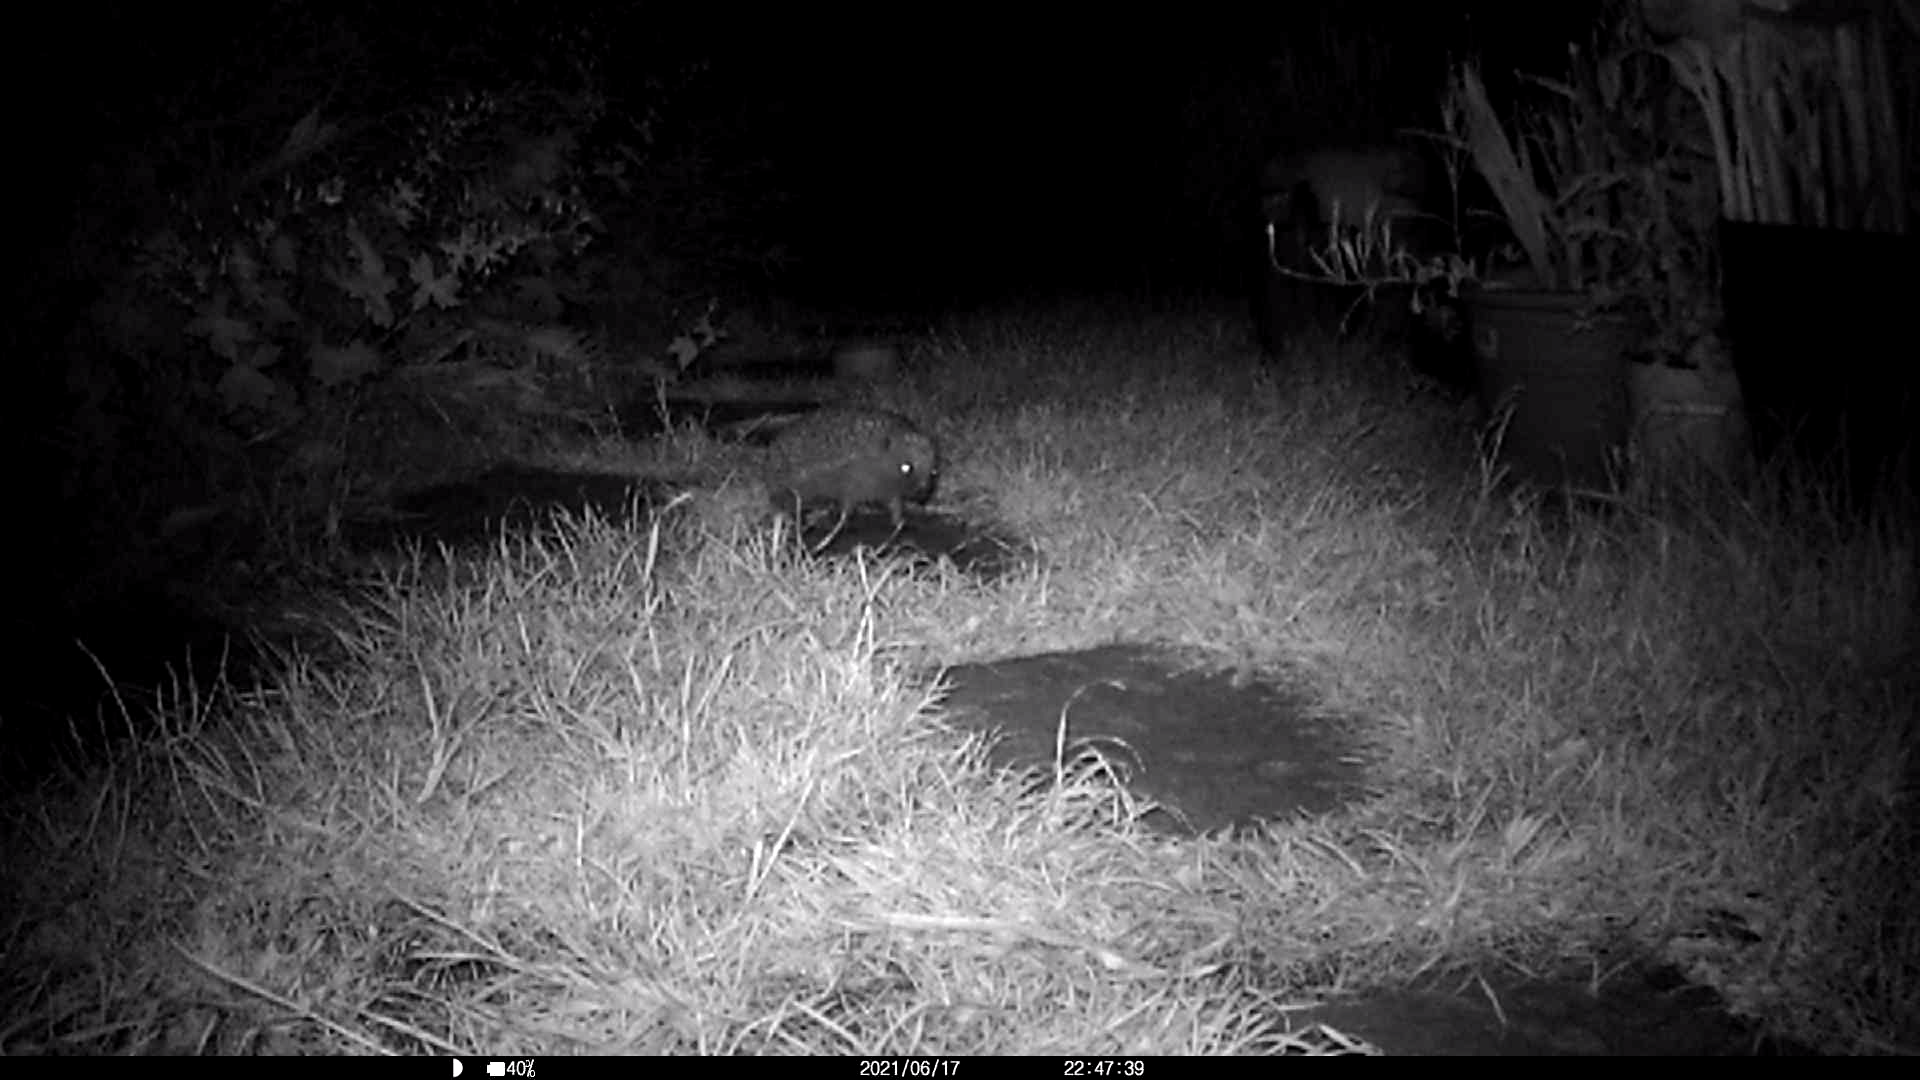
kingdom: Animalia
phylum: Chordata
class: Mammalia
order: Erinaceomorpha
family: Erinaceidae
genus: Erinaceus
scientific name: Erinaceus europaeus
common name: West european hedgehog
